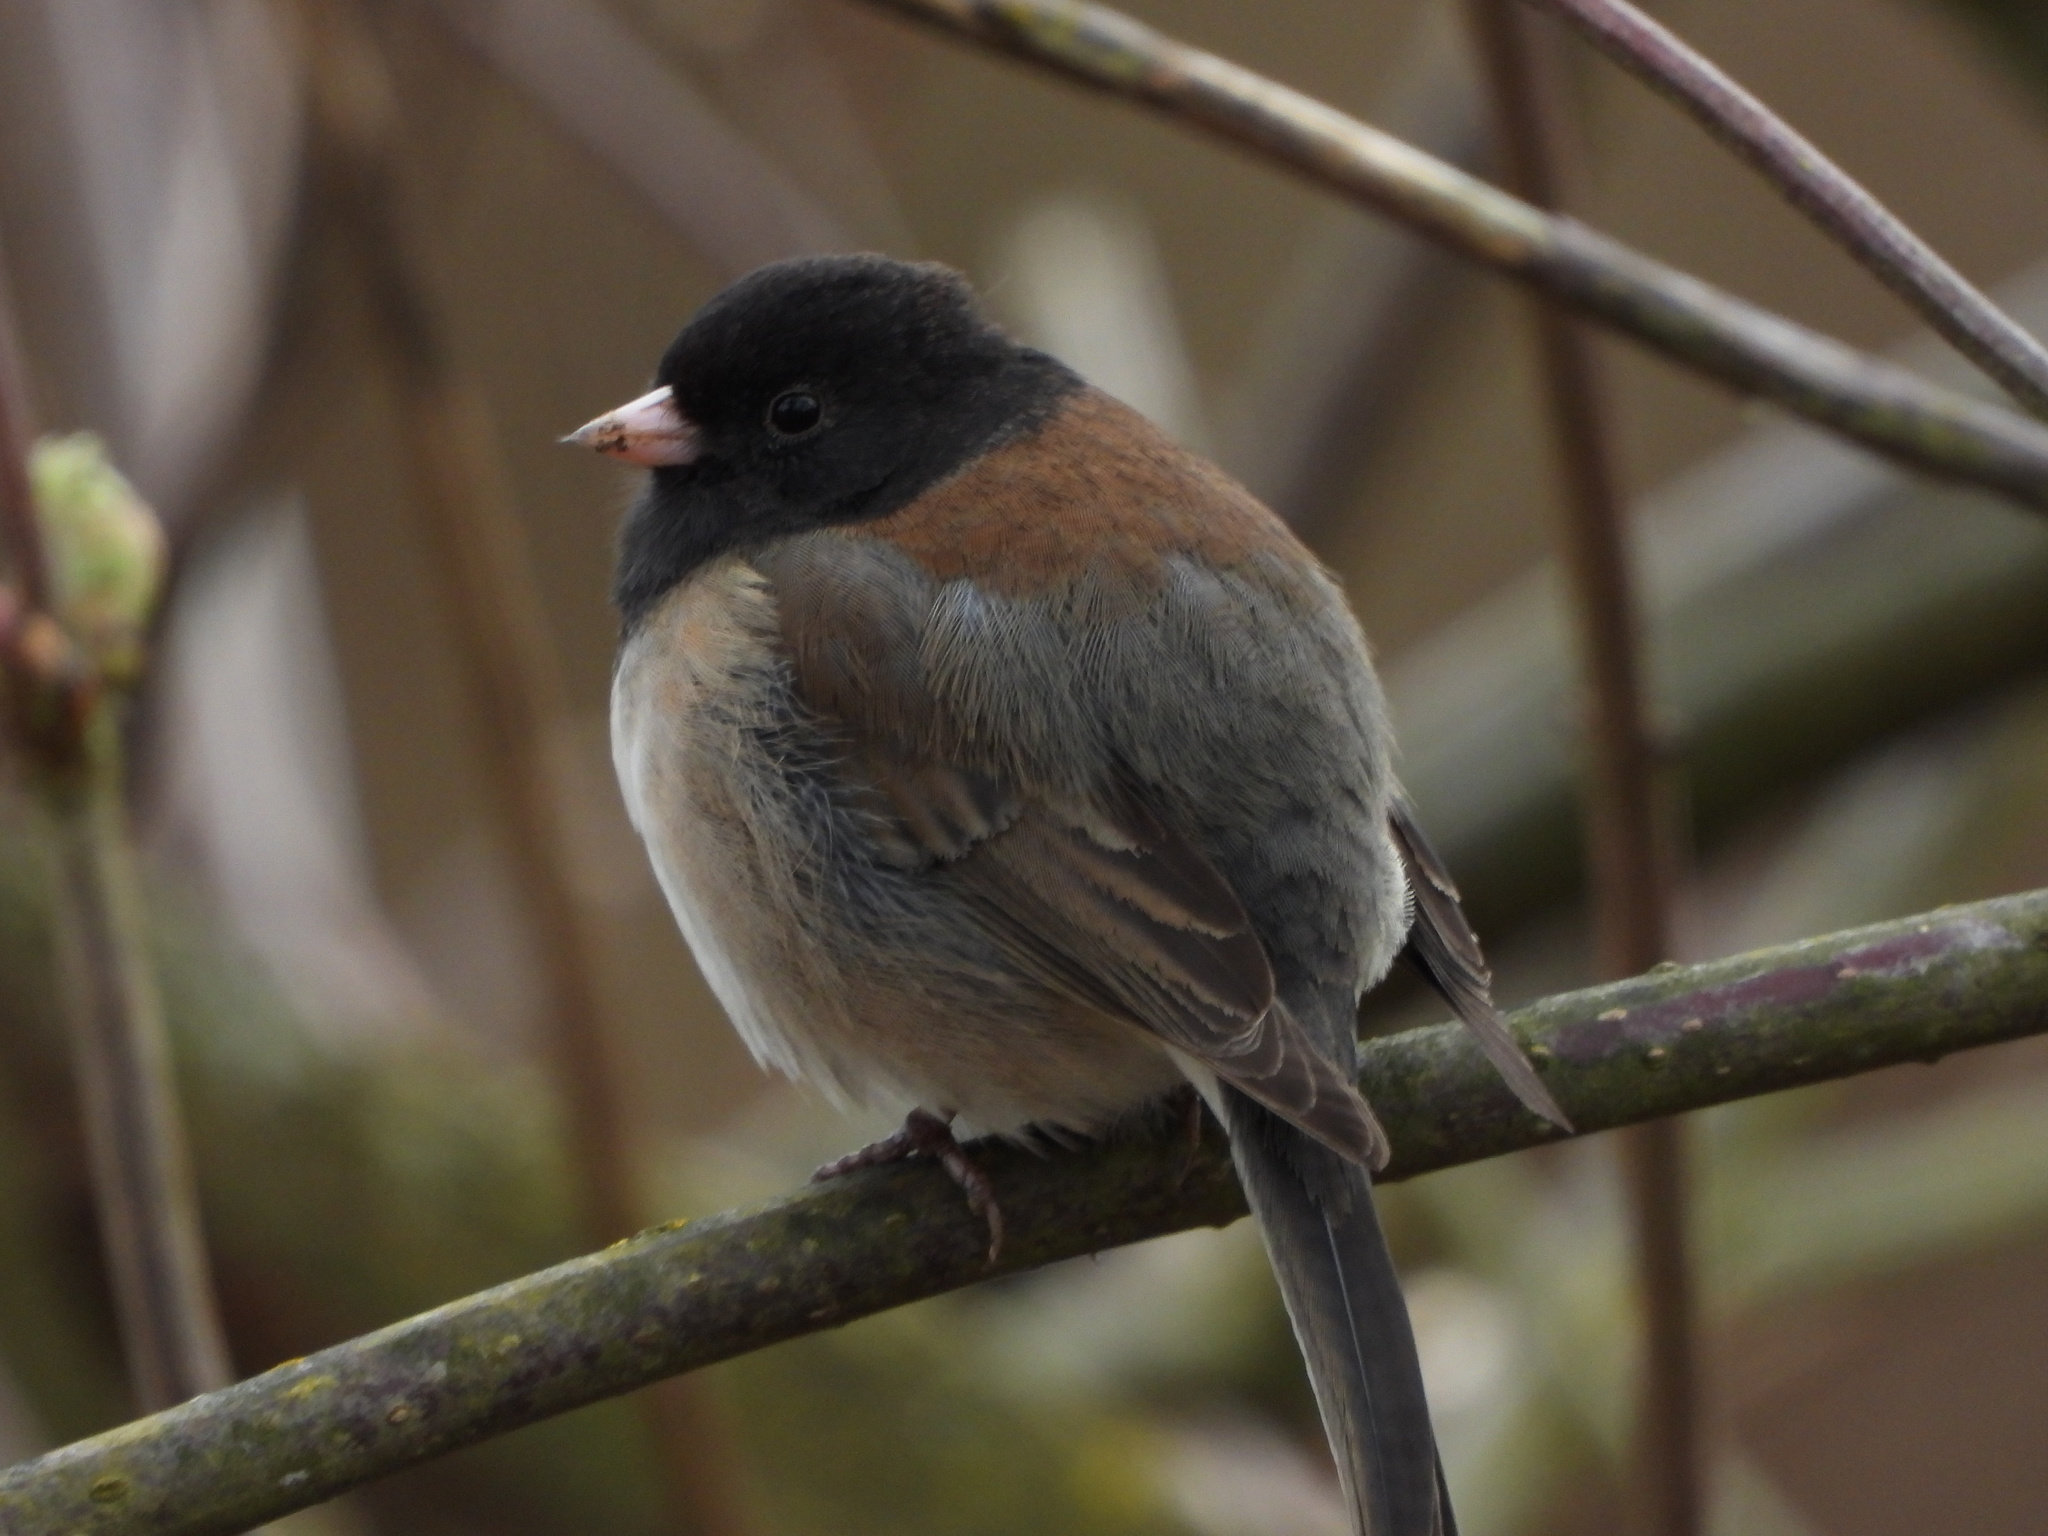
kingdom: Animalia
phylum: Chordata
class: Aves
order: Passeriformes
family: Passerellidae
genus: Junco
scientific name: Junco hyemalis
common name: Dark-eyed junco
